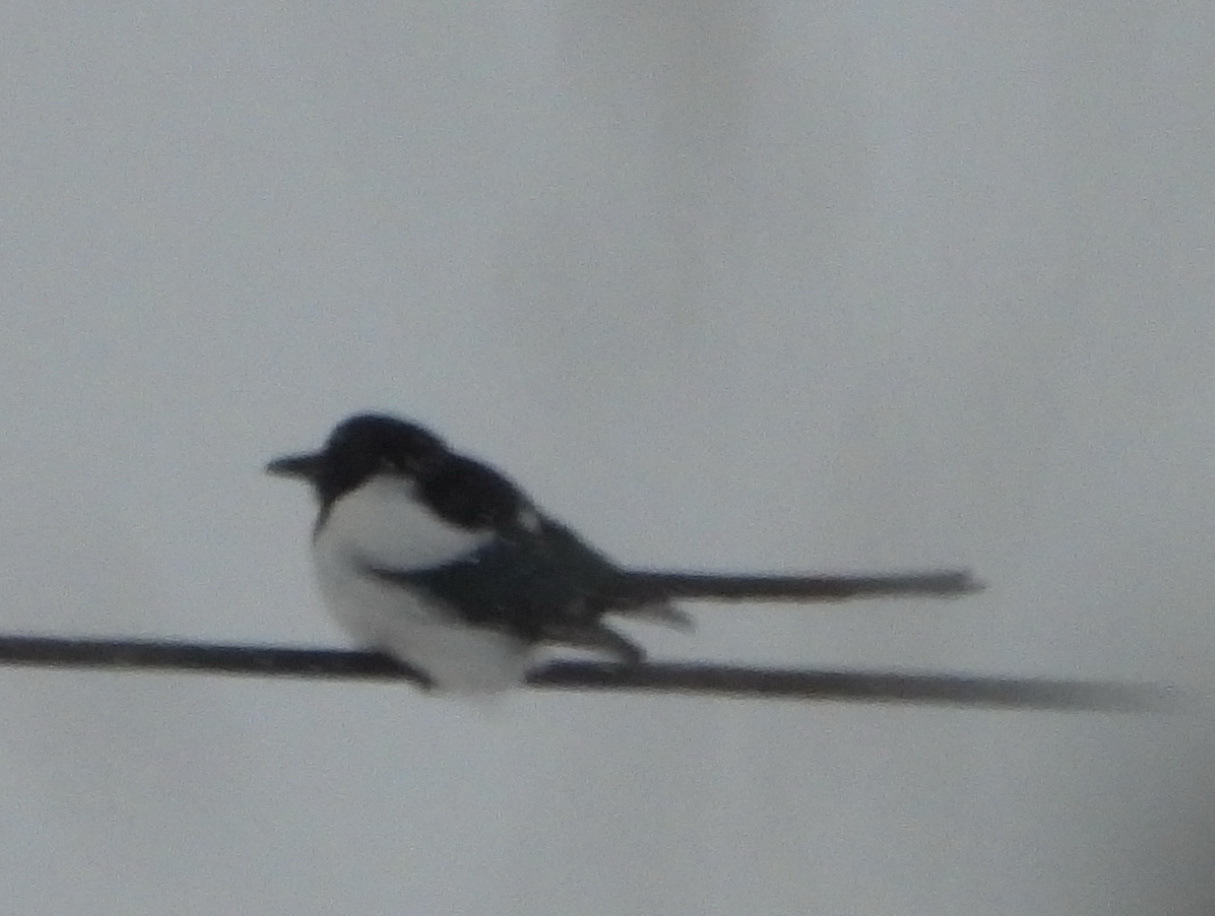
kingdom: Animalia
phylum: Chordata
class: Aves
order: Passeriformes
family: Corvidae
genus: Pica
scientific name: Pica pica
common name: Eurasian magpie
